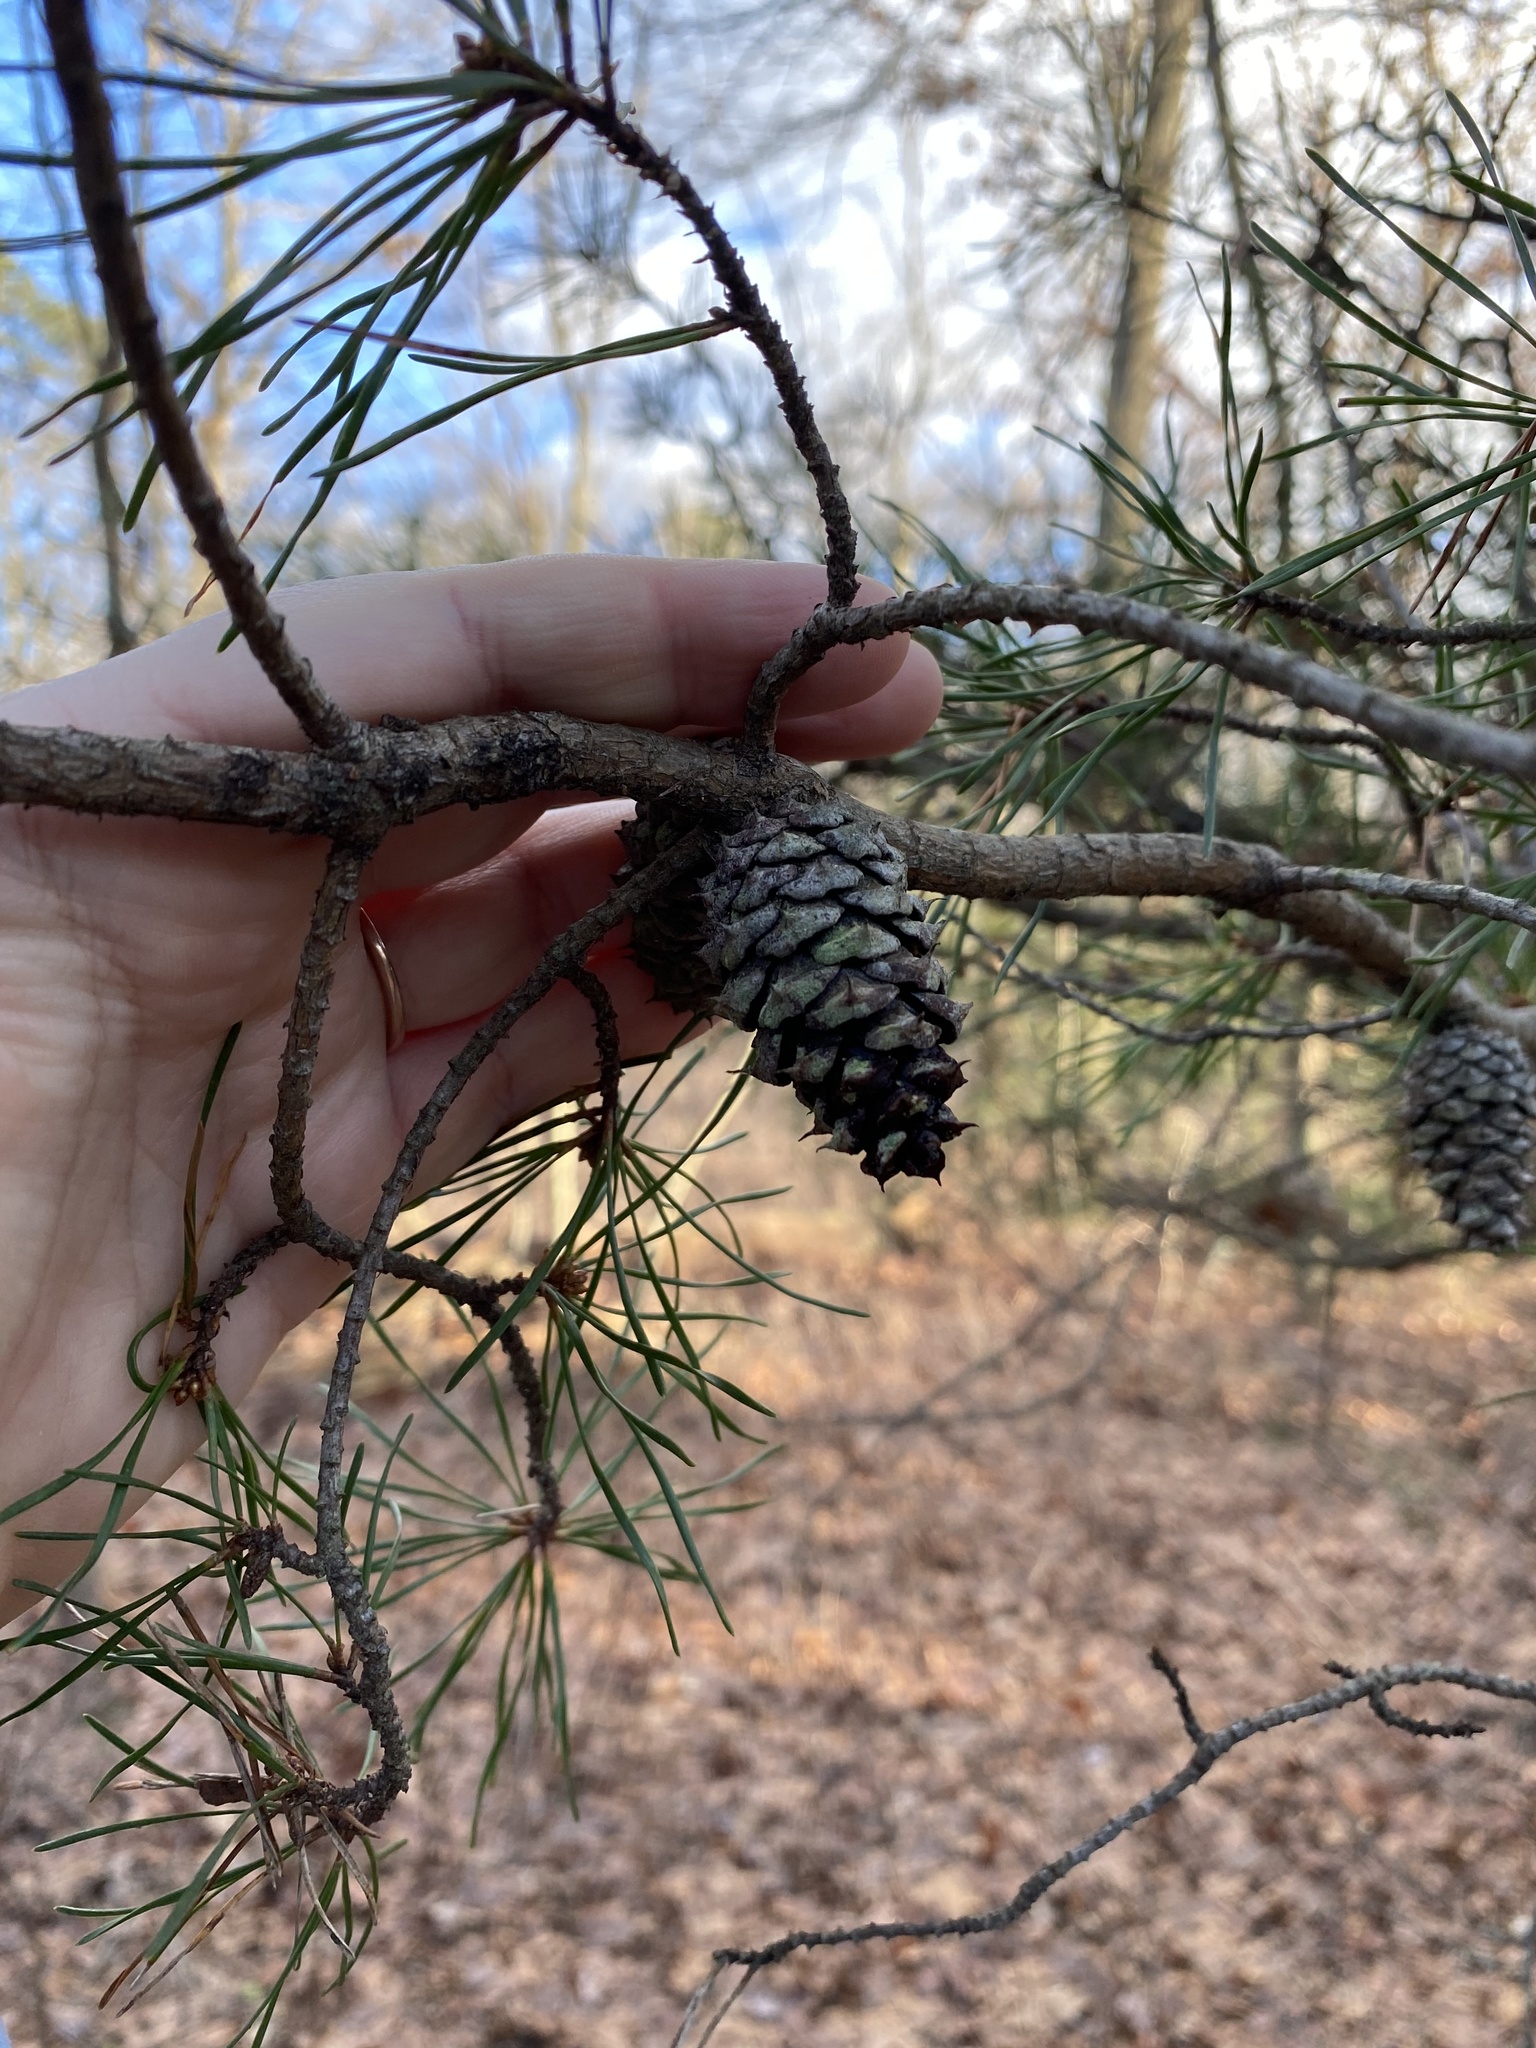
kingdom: Plantae
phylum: Tracheophyta
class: Pinopsida
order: Pinales
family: Pinaceae
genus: Pinus
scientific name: Pinus virginiana
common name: Scrub pine
